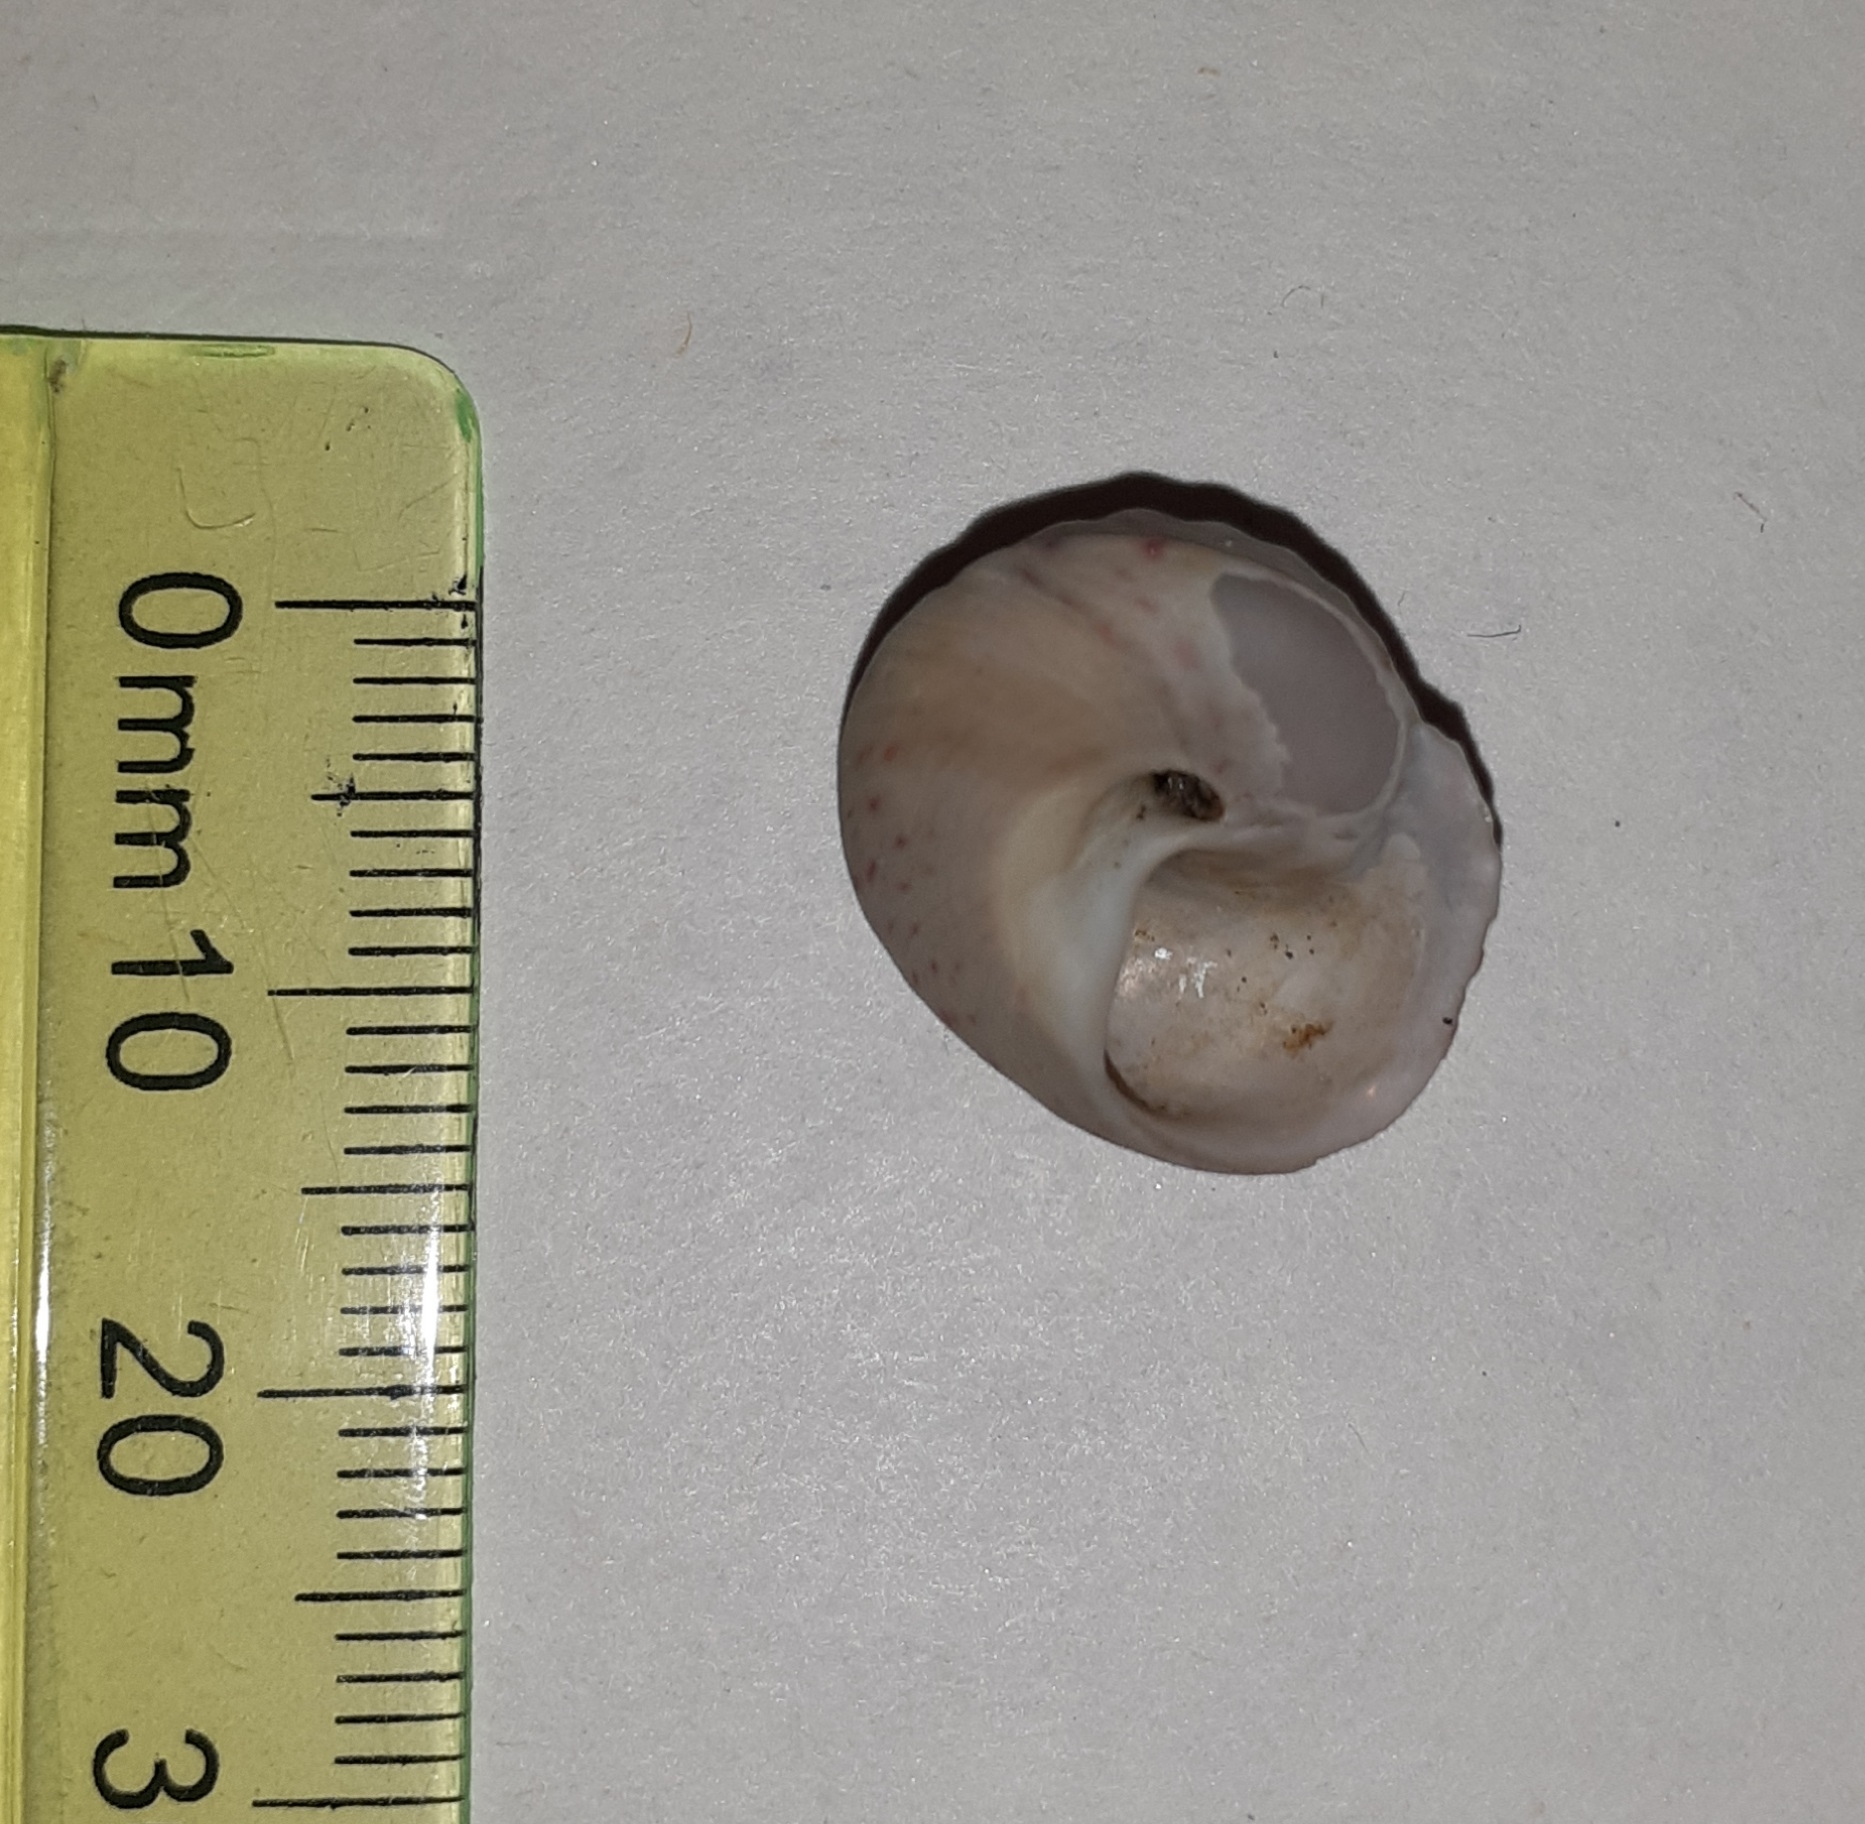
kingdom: Animalia
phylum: Mollusca
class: Gastropoda
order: Trochida
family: Trochidae
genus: Gibbula
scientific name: Gibbula magus
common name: Turban top shell
